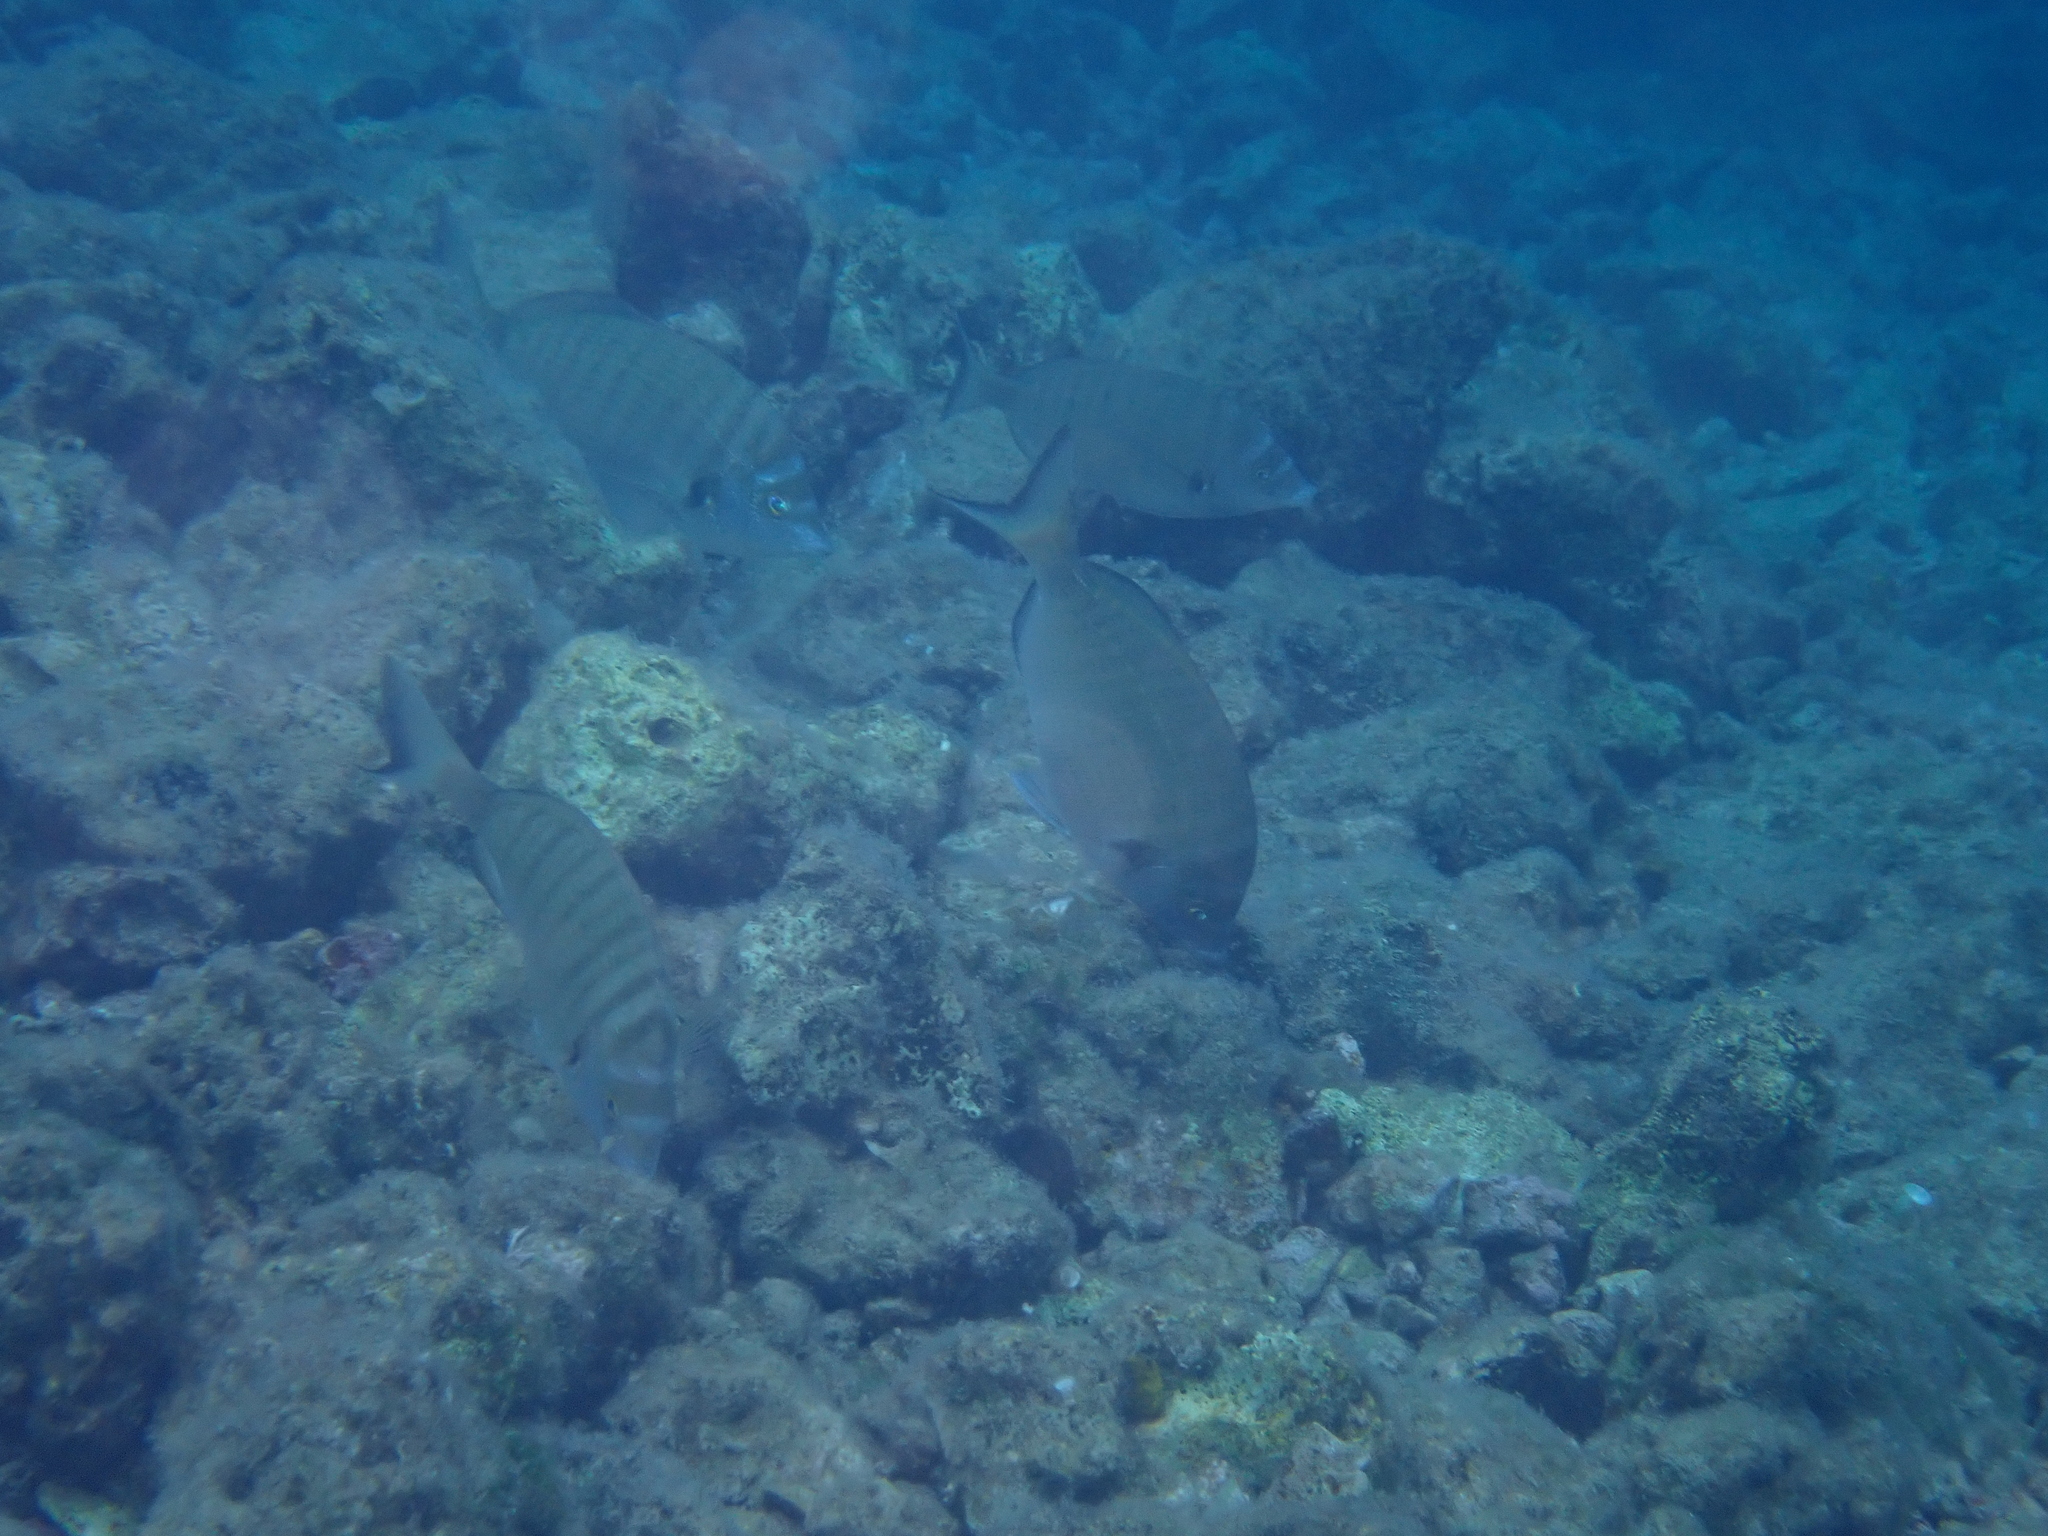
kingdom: Animalia
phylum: Chordata
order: Perciformes
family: Sparidae
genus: Diplodus
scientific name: Diplodus puntazzo
